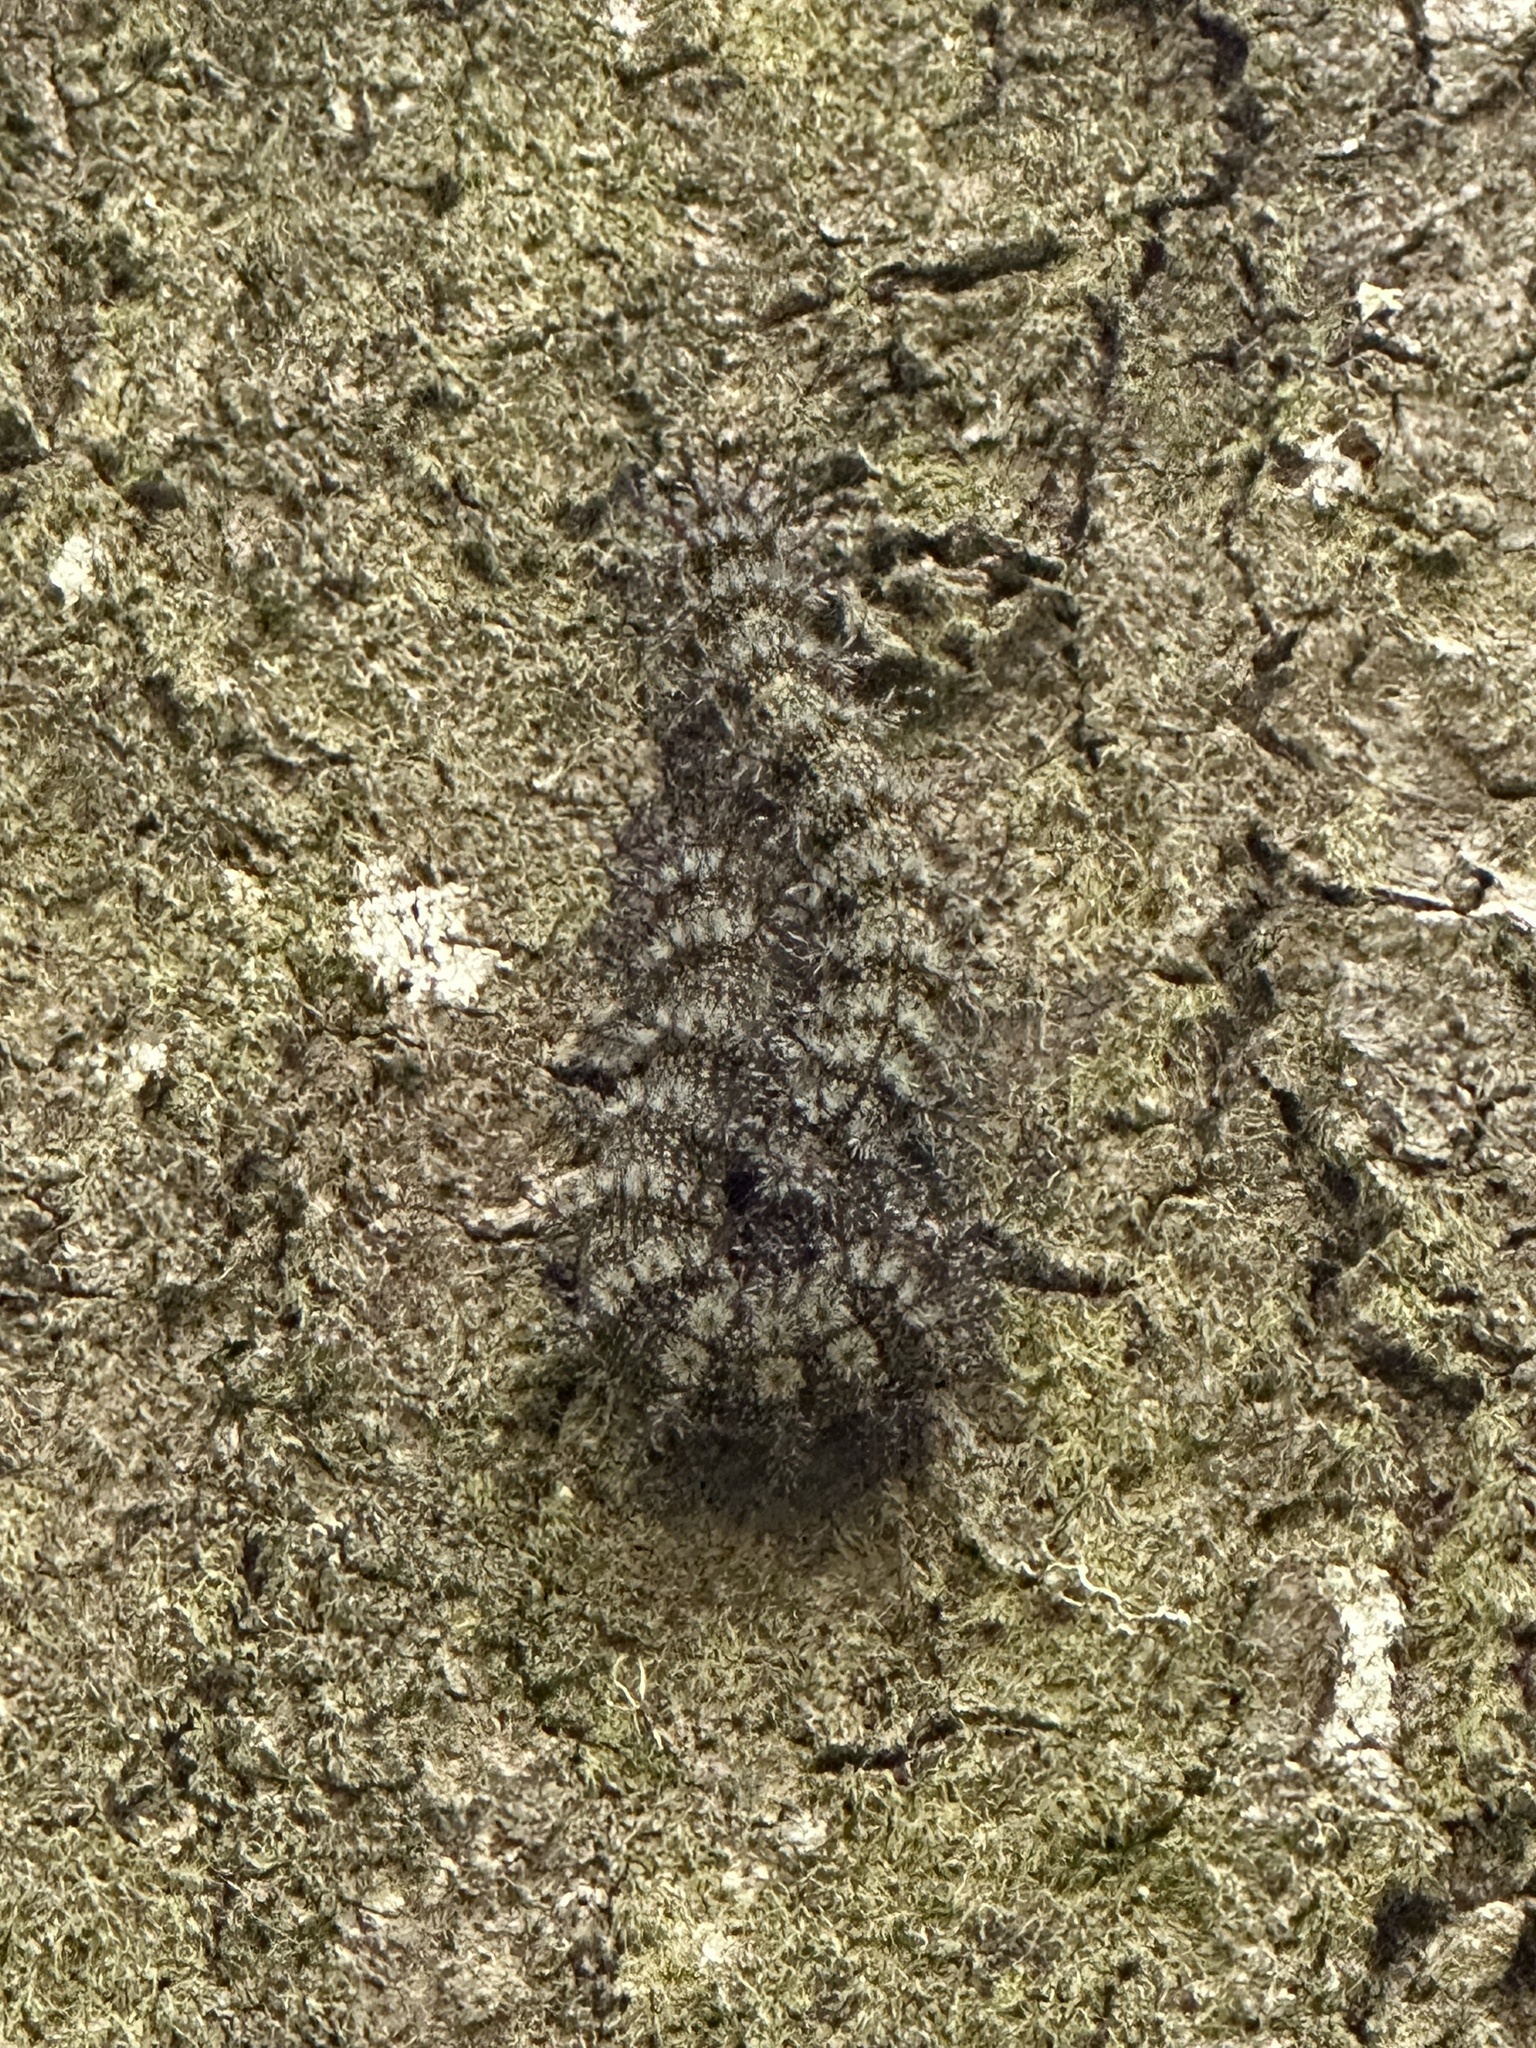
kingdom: Animalia
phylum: Arthropoda
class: Insecta
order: Lepidoptera
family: Saturniidae
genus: Hemileuca
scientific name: Hemileuca maia
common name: Eastern buckmoth
